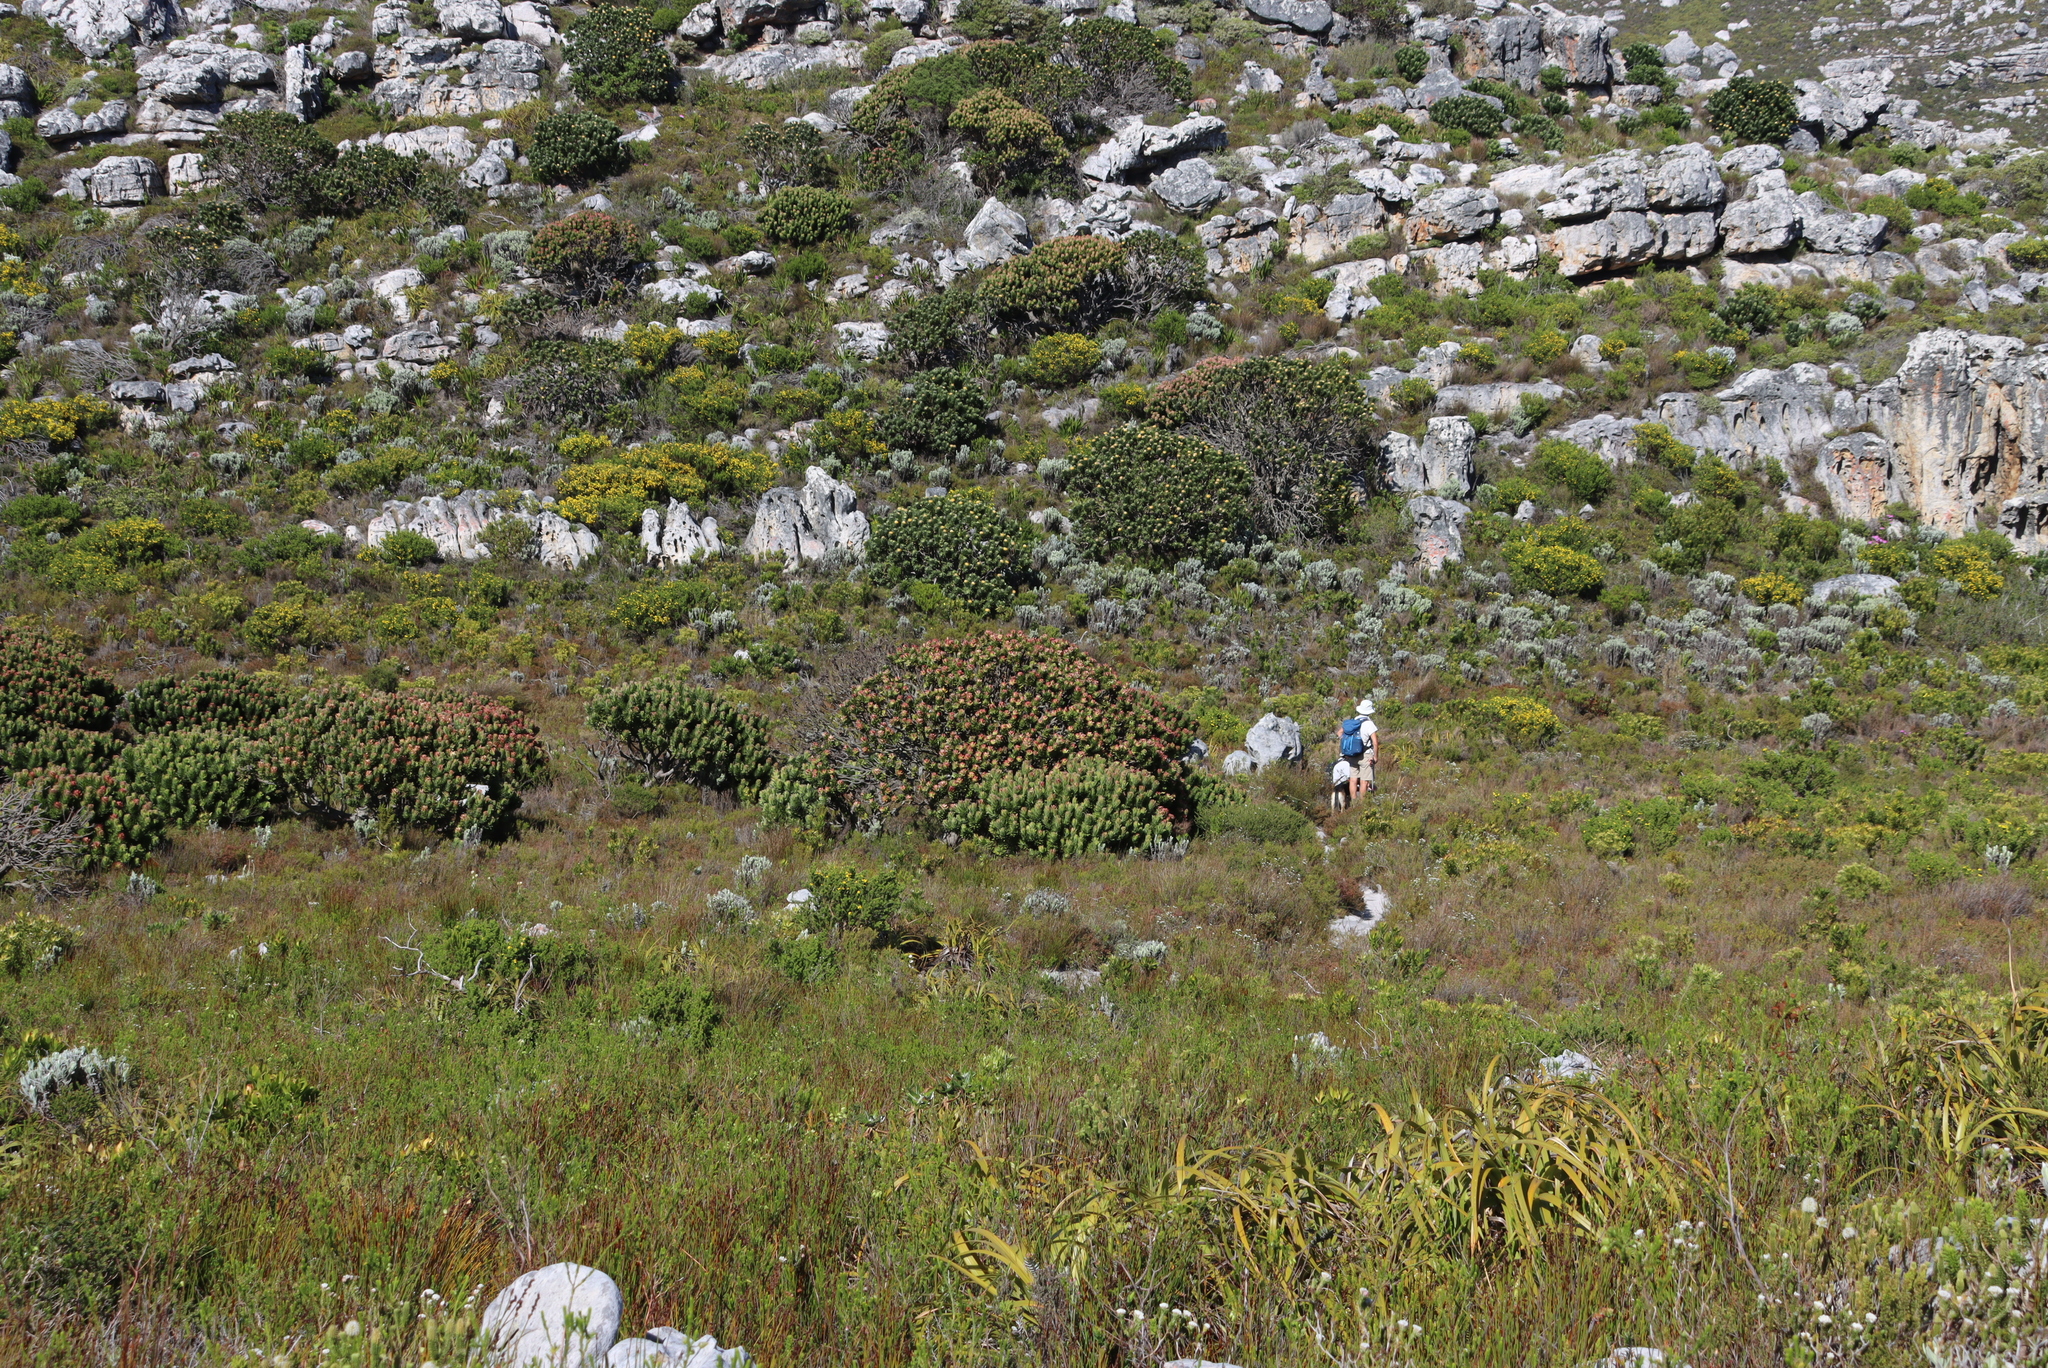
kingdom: Plantae
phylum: Tracheophyta
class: Magnoliopsida
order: Proteales
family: Proteaceae
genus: Mimetes
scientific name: Mimetes fimbriifolius
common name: Fringed bottlebrush
